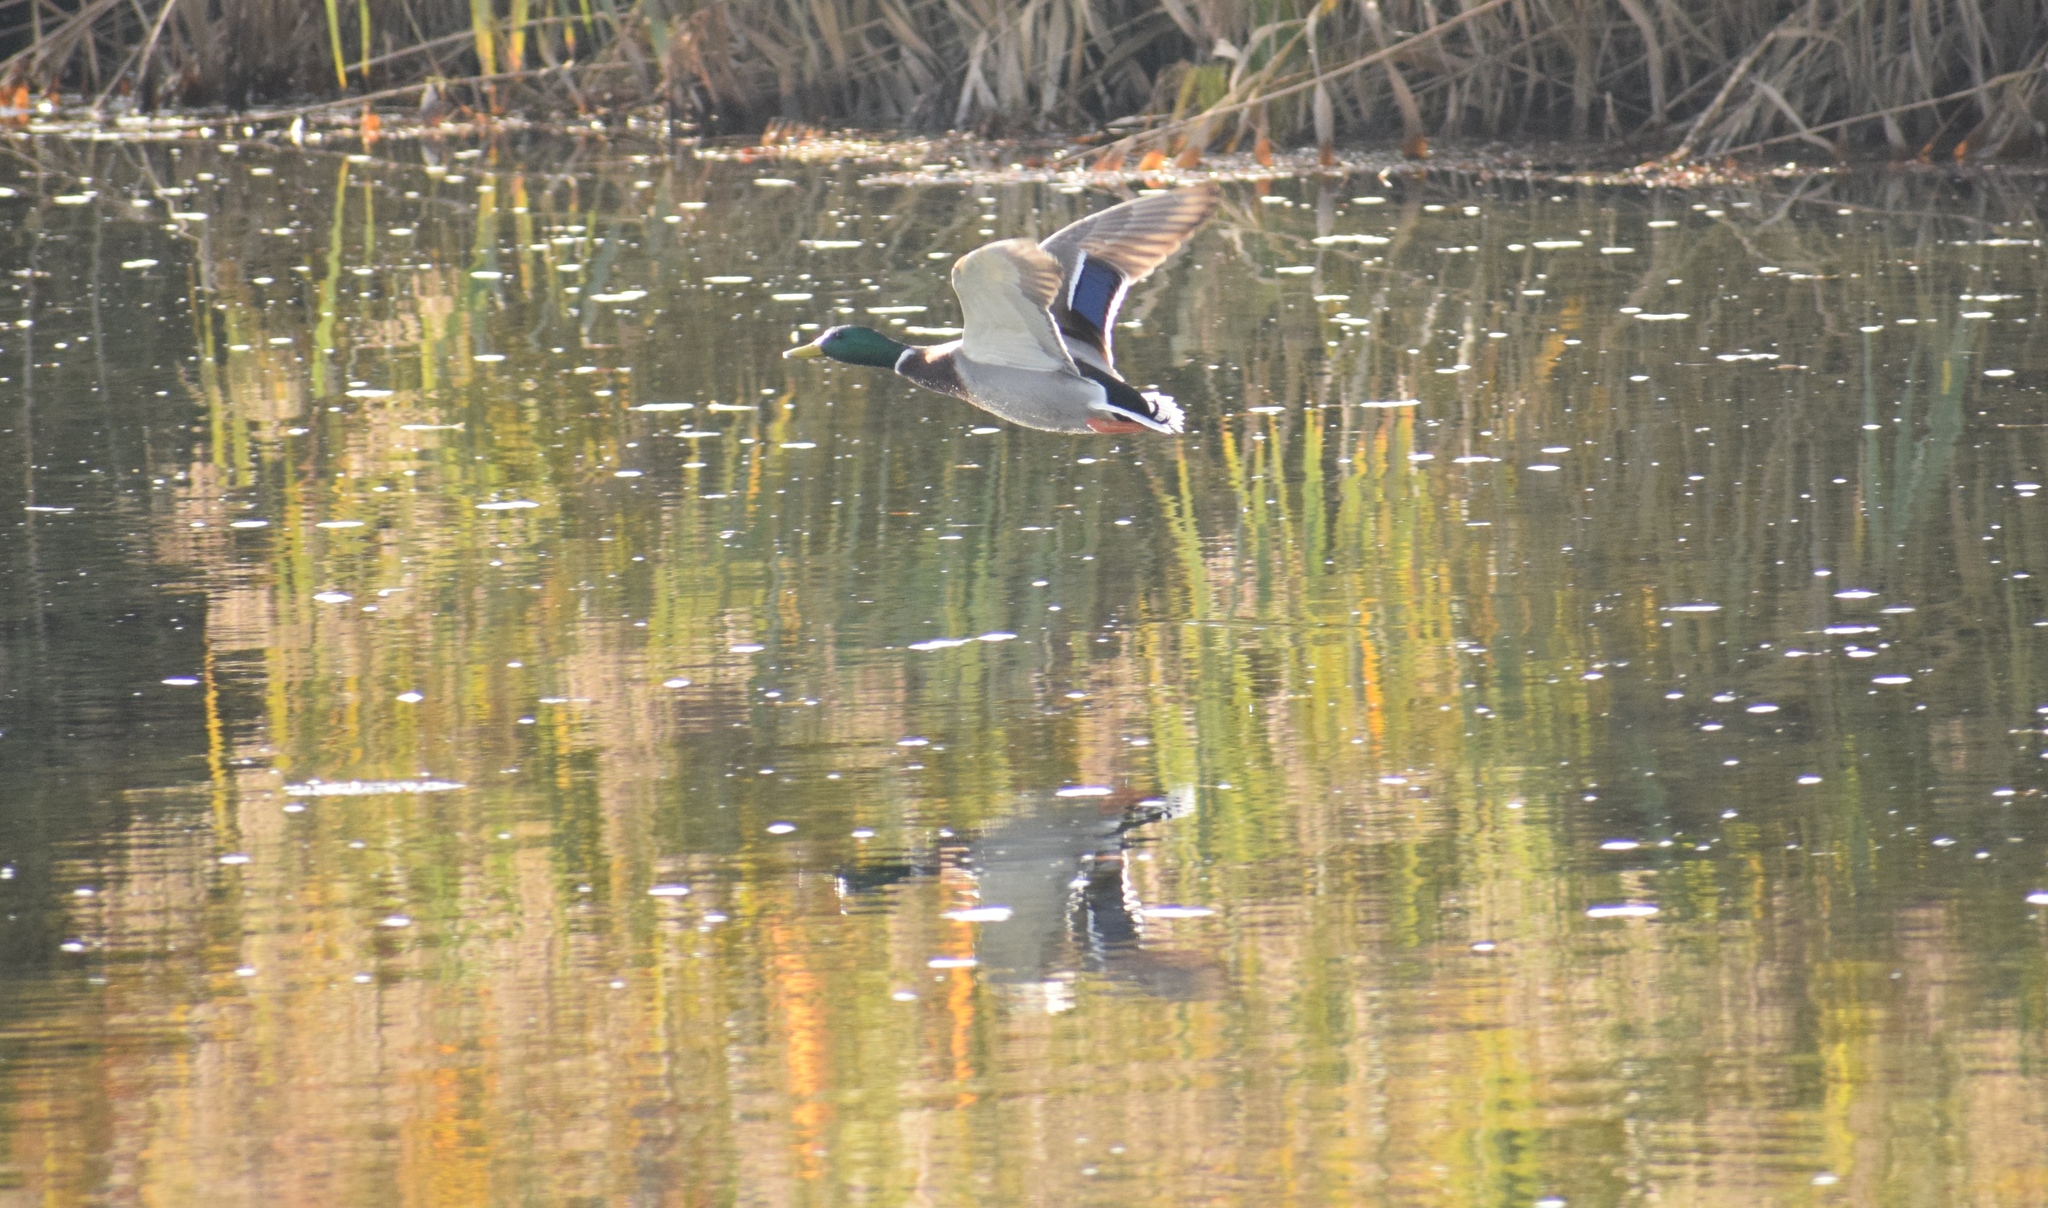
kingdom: Animalia
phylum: Chordata
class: Aves
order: Anseriformes
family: Anatidae
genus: Anas
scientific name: Anas platyrhynchos
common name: Mallard
